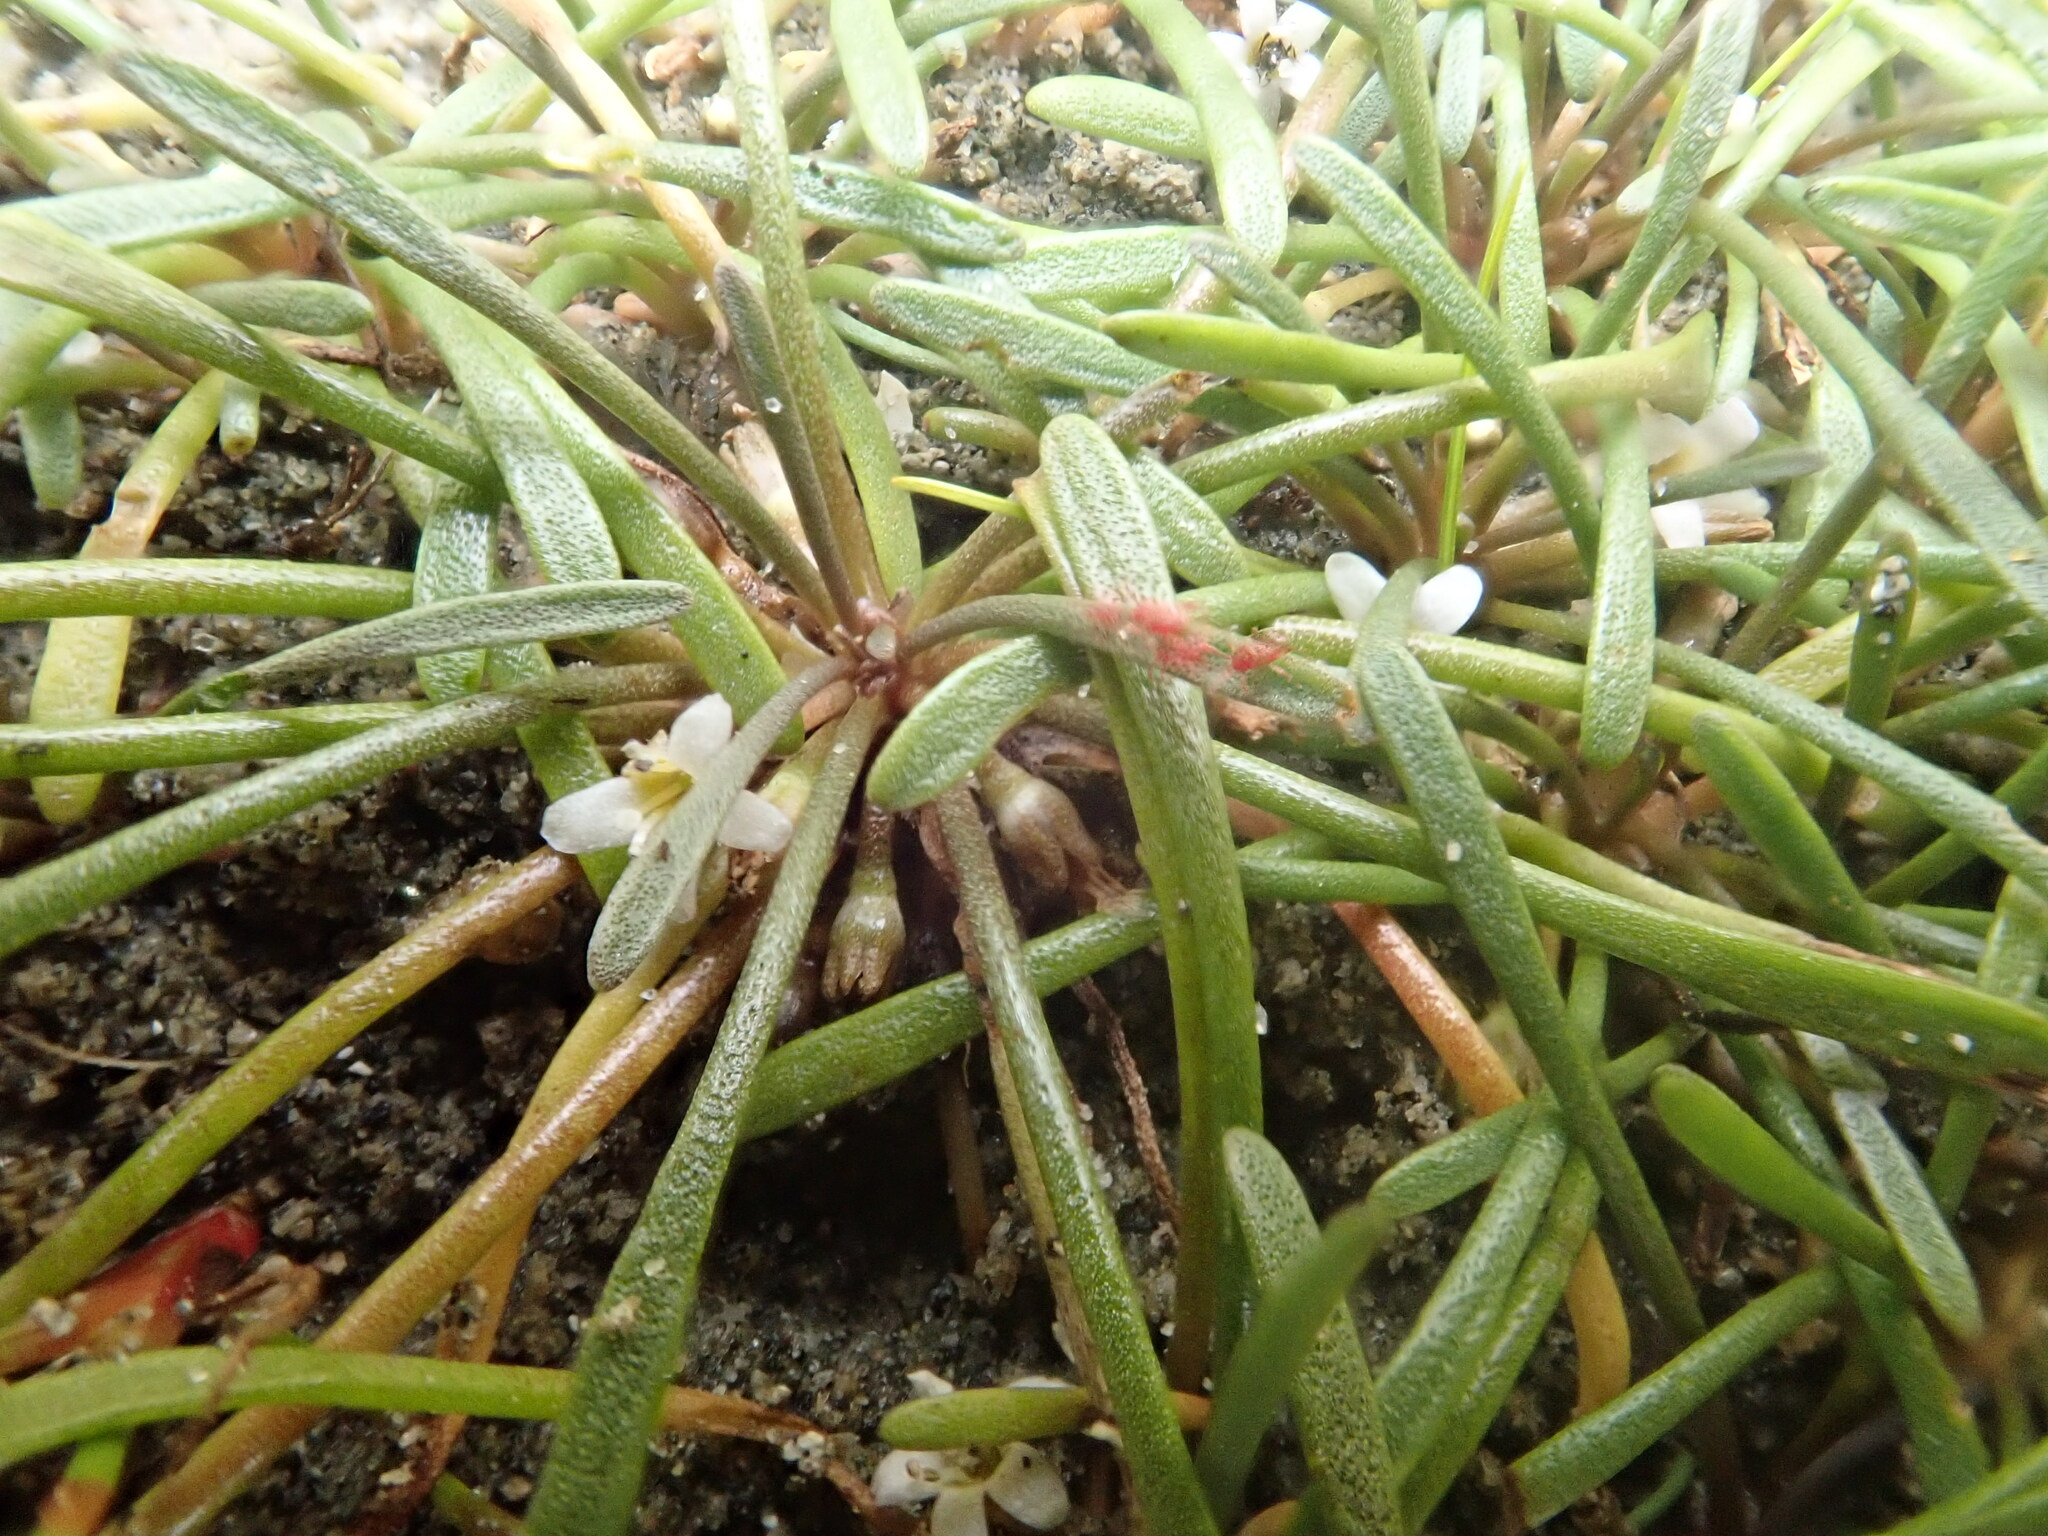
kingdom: Plantae
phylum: Tracheophyta
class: Magnoliopsida
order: Lamiales
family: Scrophulariaceae
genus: Limosella
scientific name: Limosella australis
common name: Welsh mudwort
